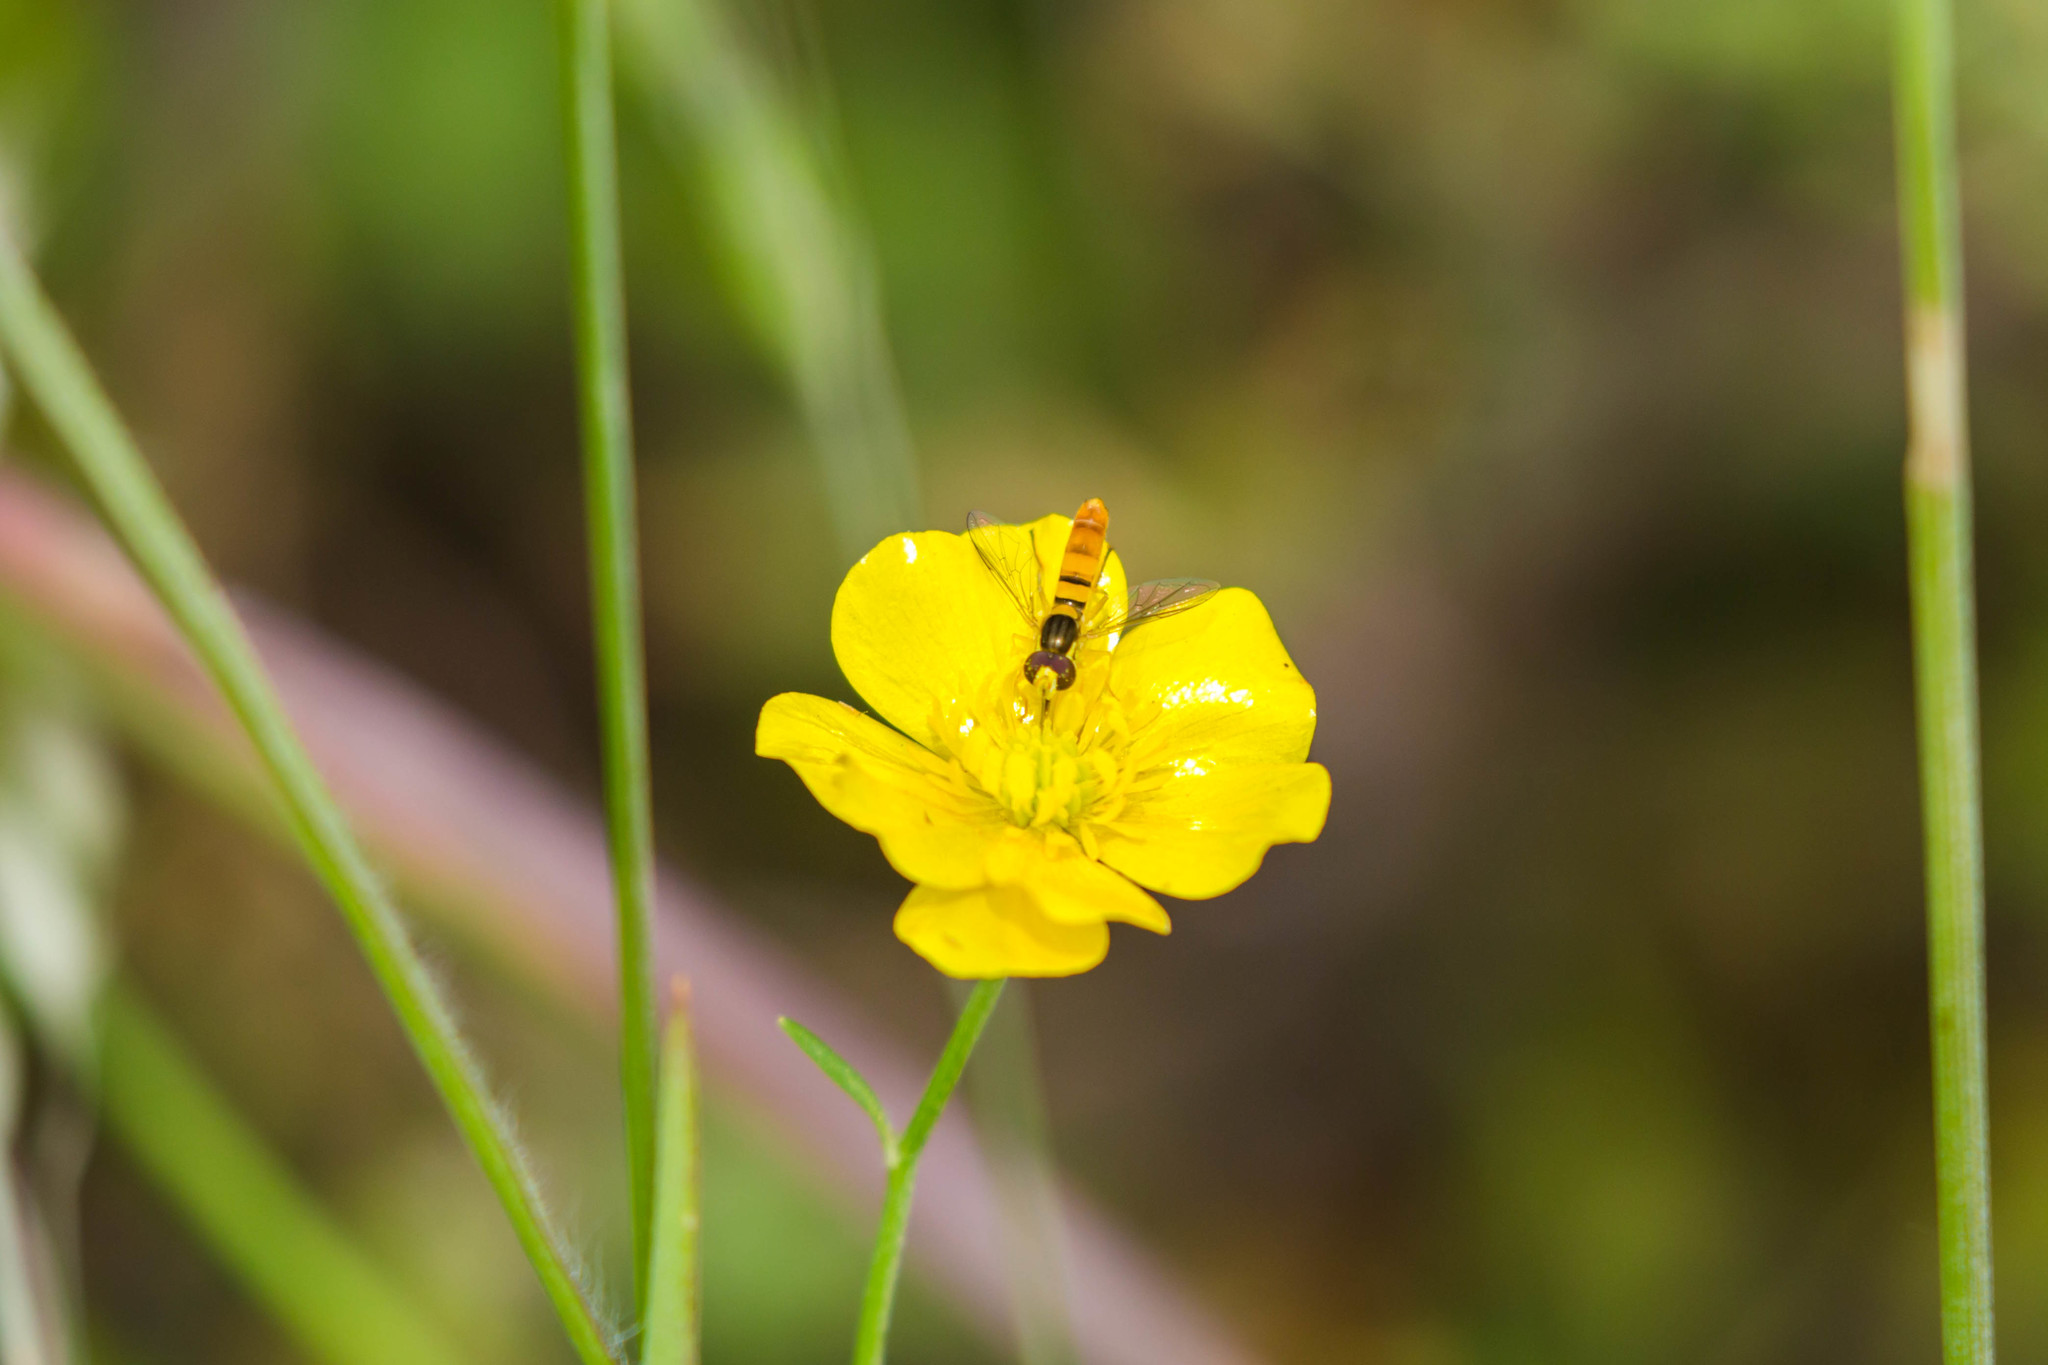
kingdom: Animalia
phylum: Arthropoda
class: Insecta
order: Diptera
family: Syrphidae
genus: Sphaerophoria
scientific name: Sphaerophoria contigua
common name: Tufted globetail
